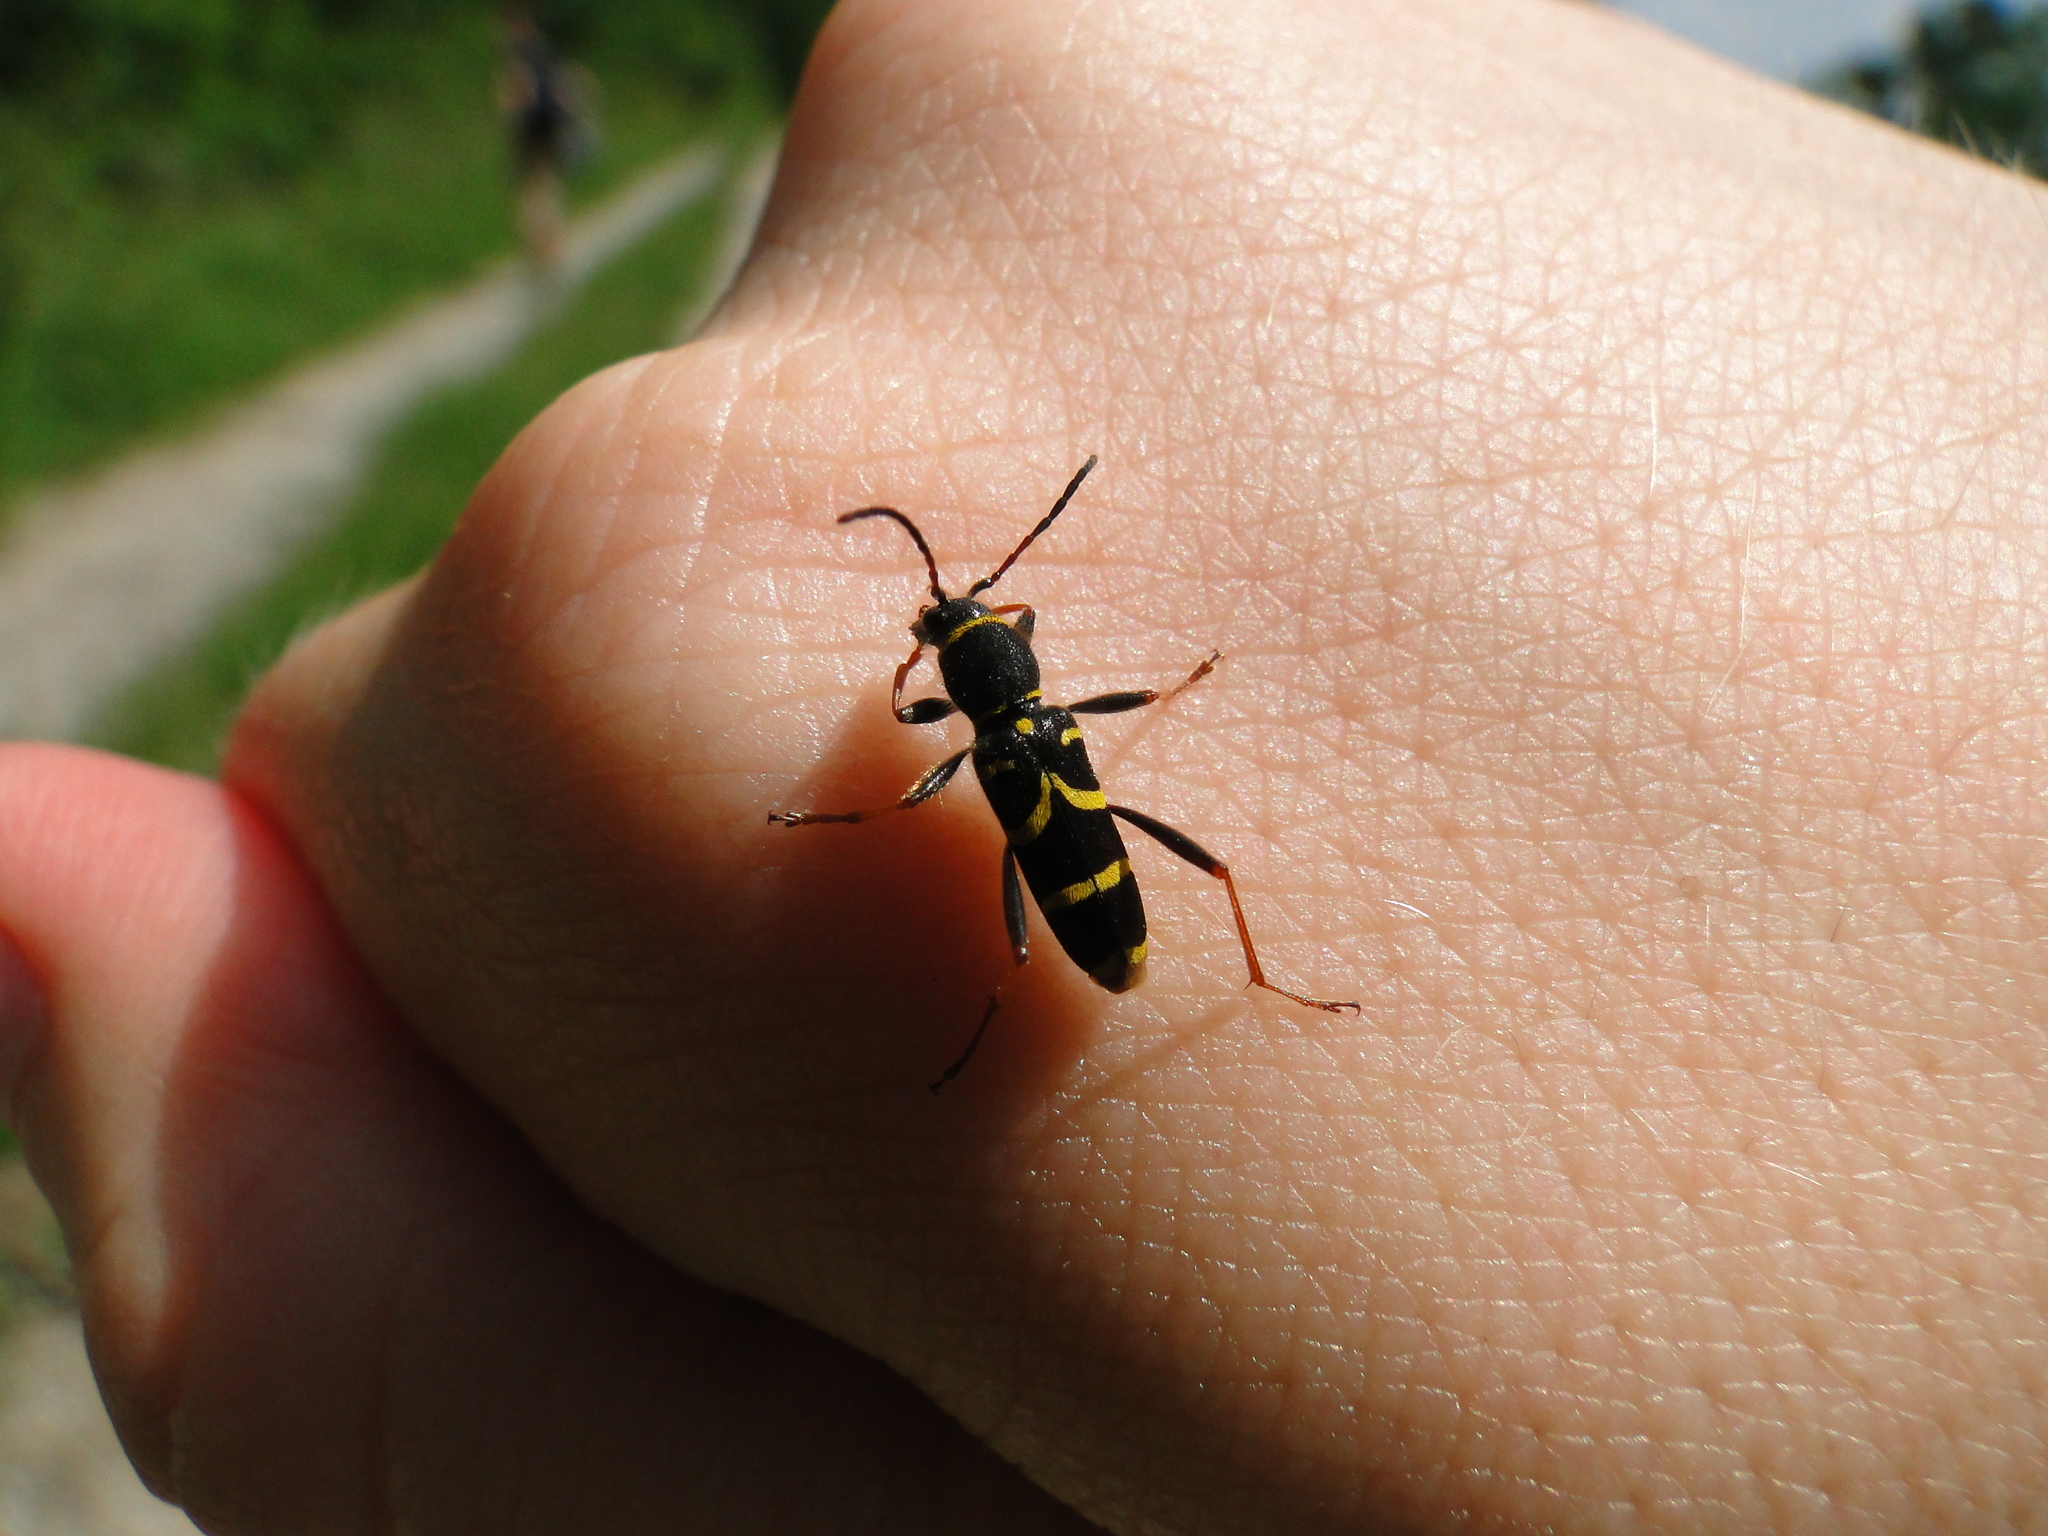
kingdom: Animalia
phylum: Arthropoda
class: Insecta
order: Coleoptera
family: Cerambycidae
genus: Clytus
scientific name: Clytus arietis
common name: Wasp beetle
